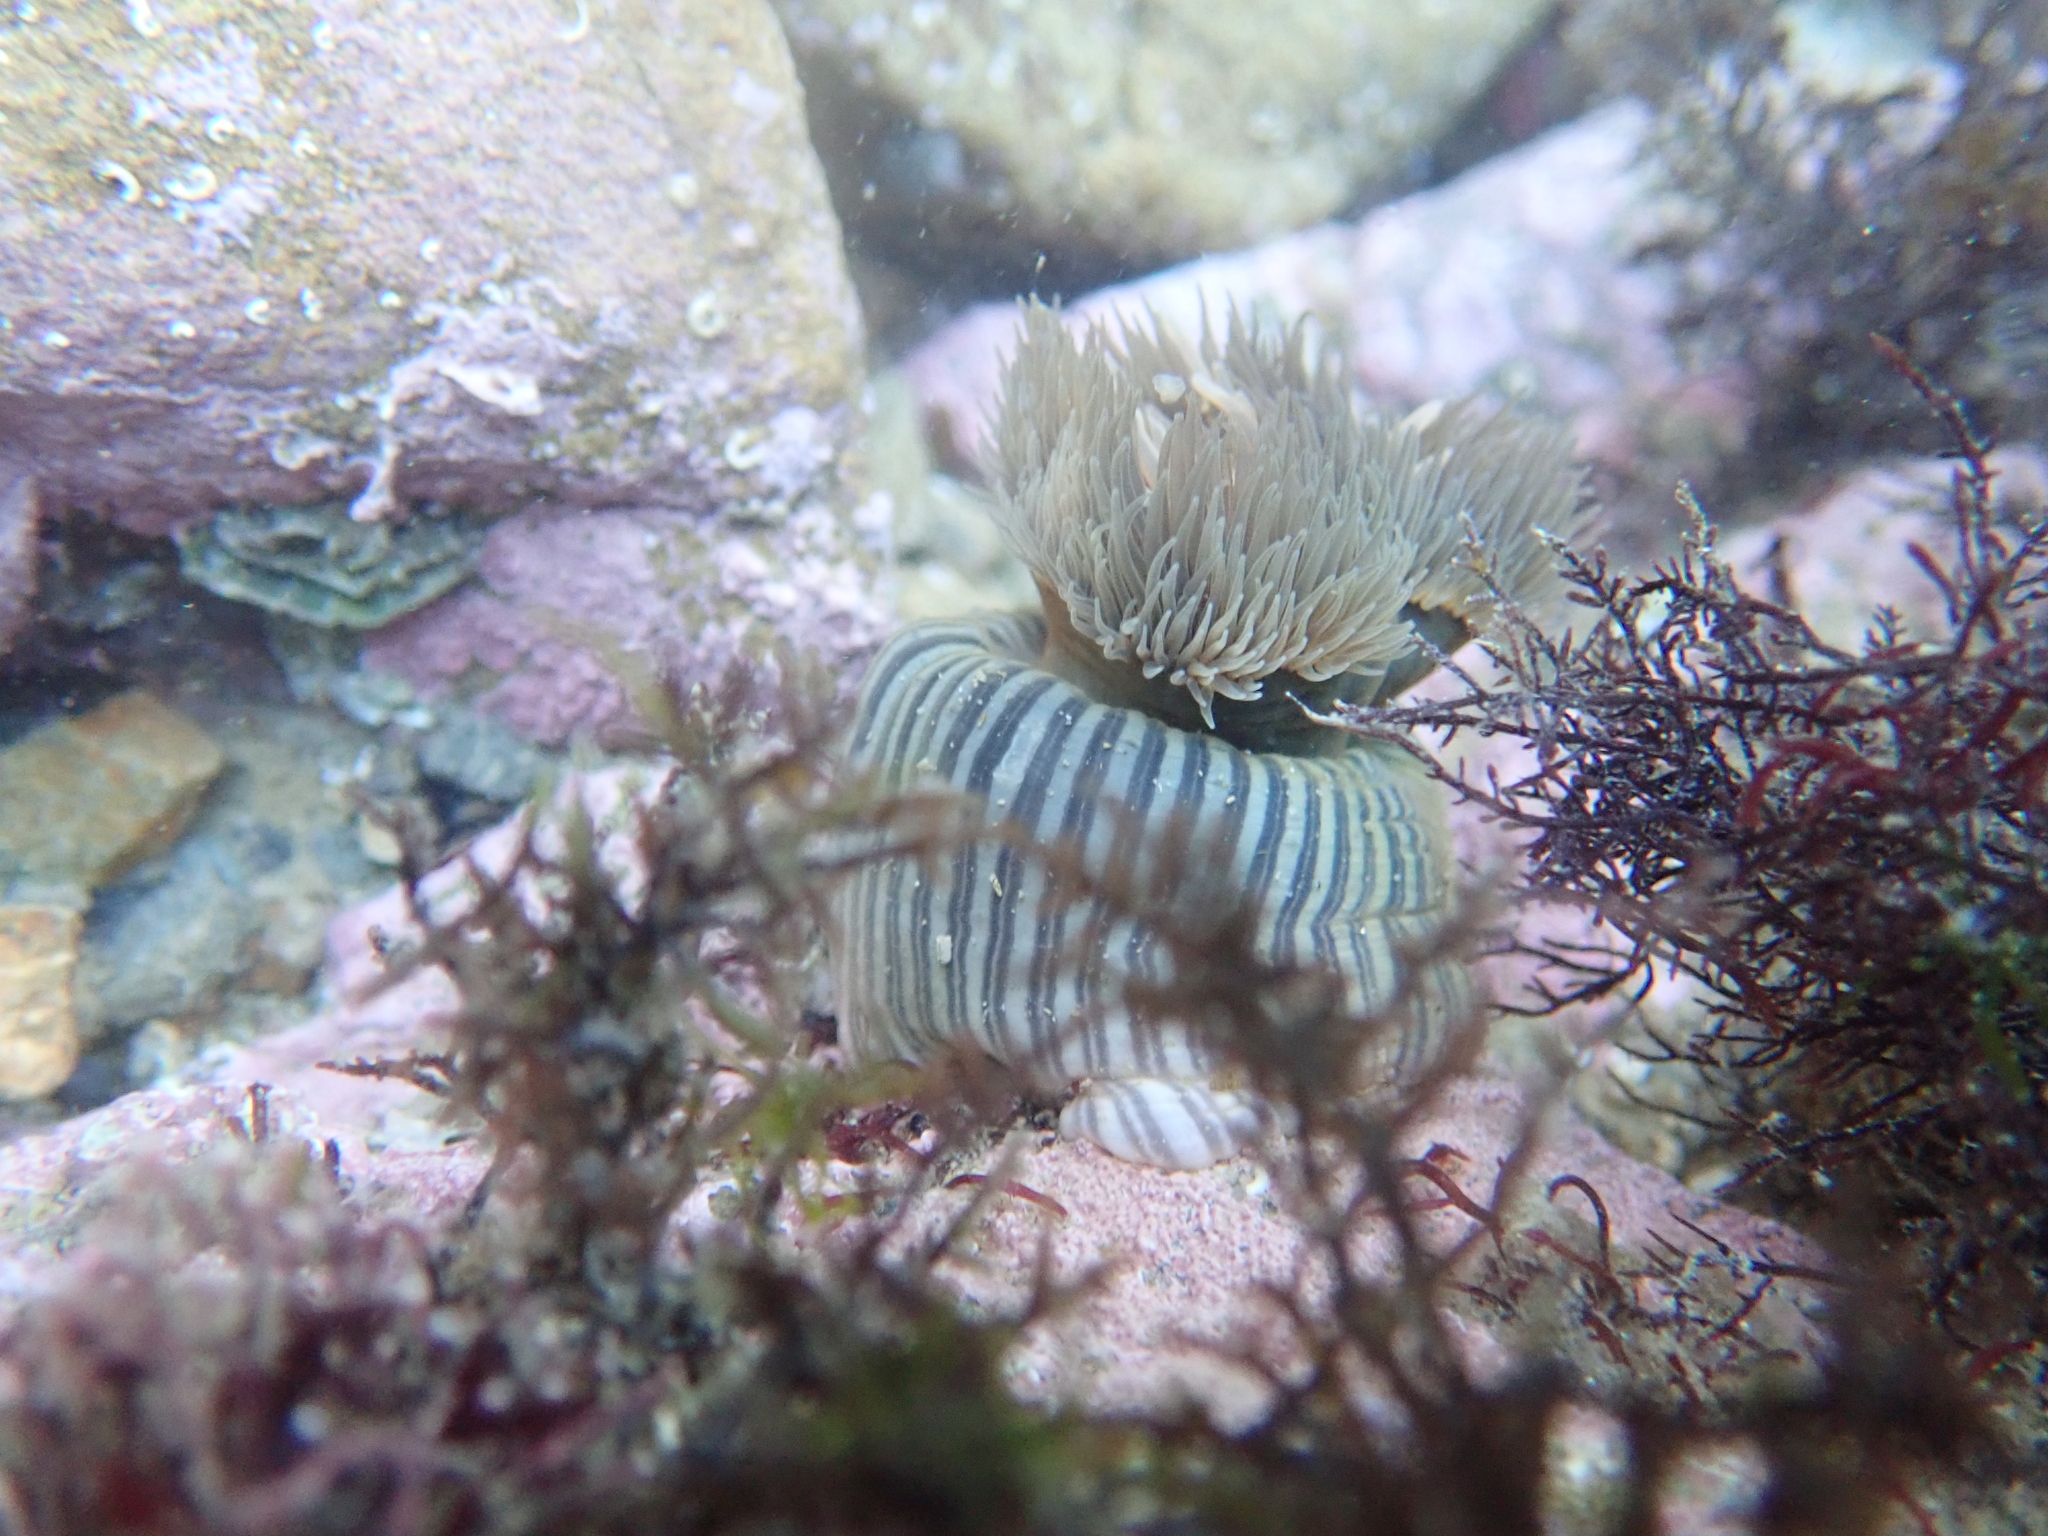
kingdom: Animalia
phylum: Cnidaria
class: Anthozoa
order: Actiniaria
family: Diadumenidae
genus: Diadumene
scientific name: Diadumene neozelanica
